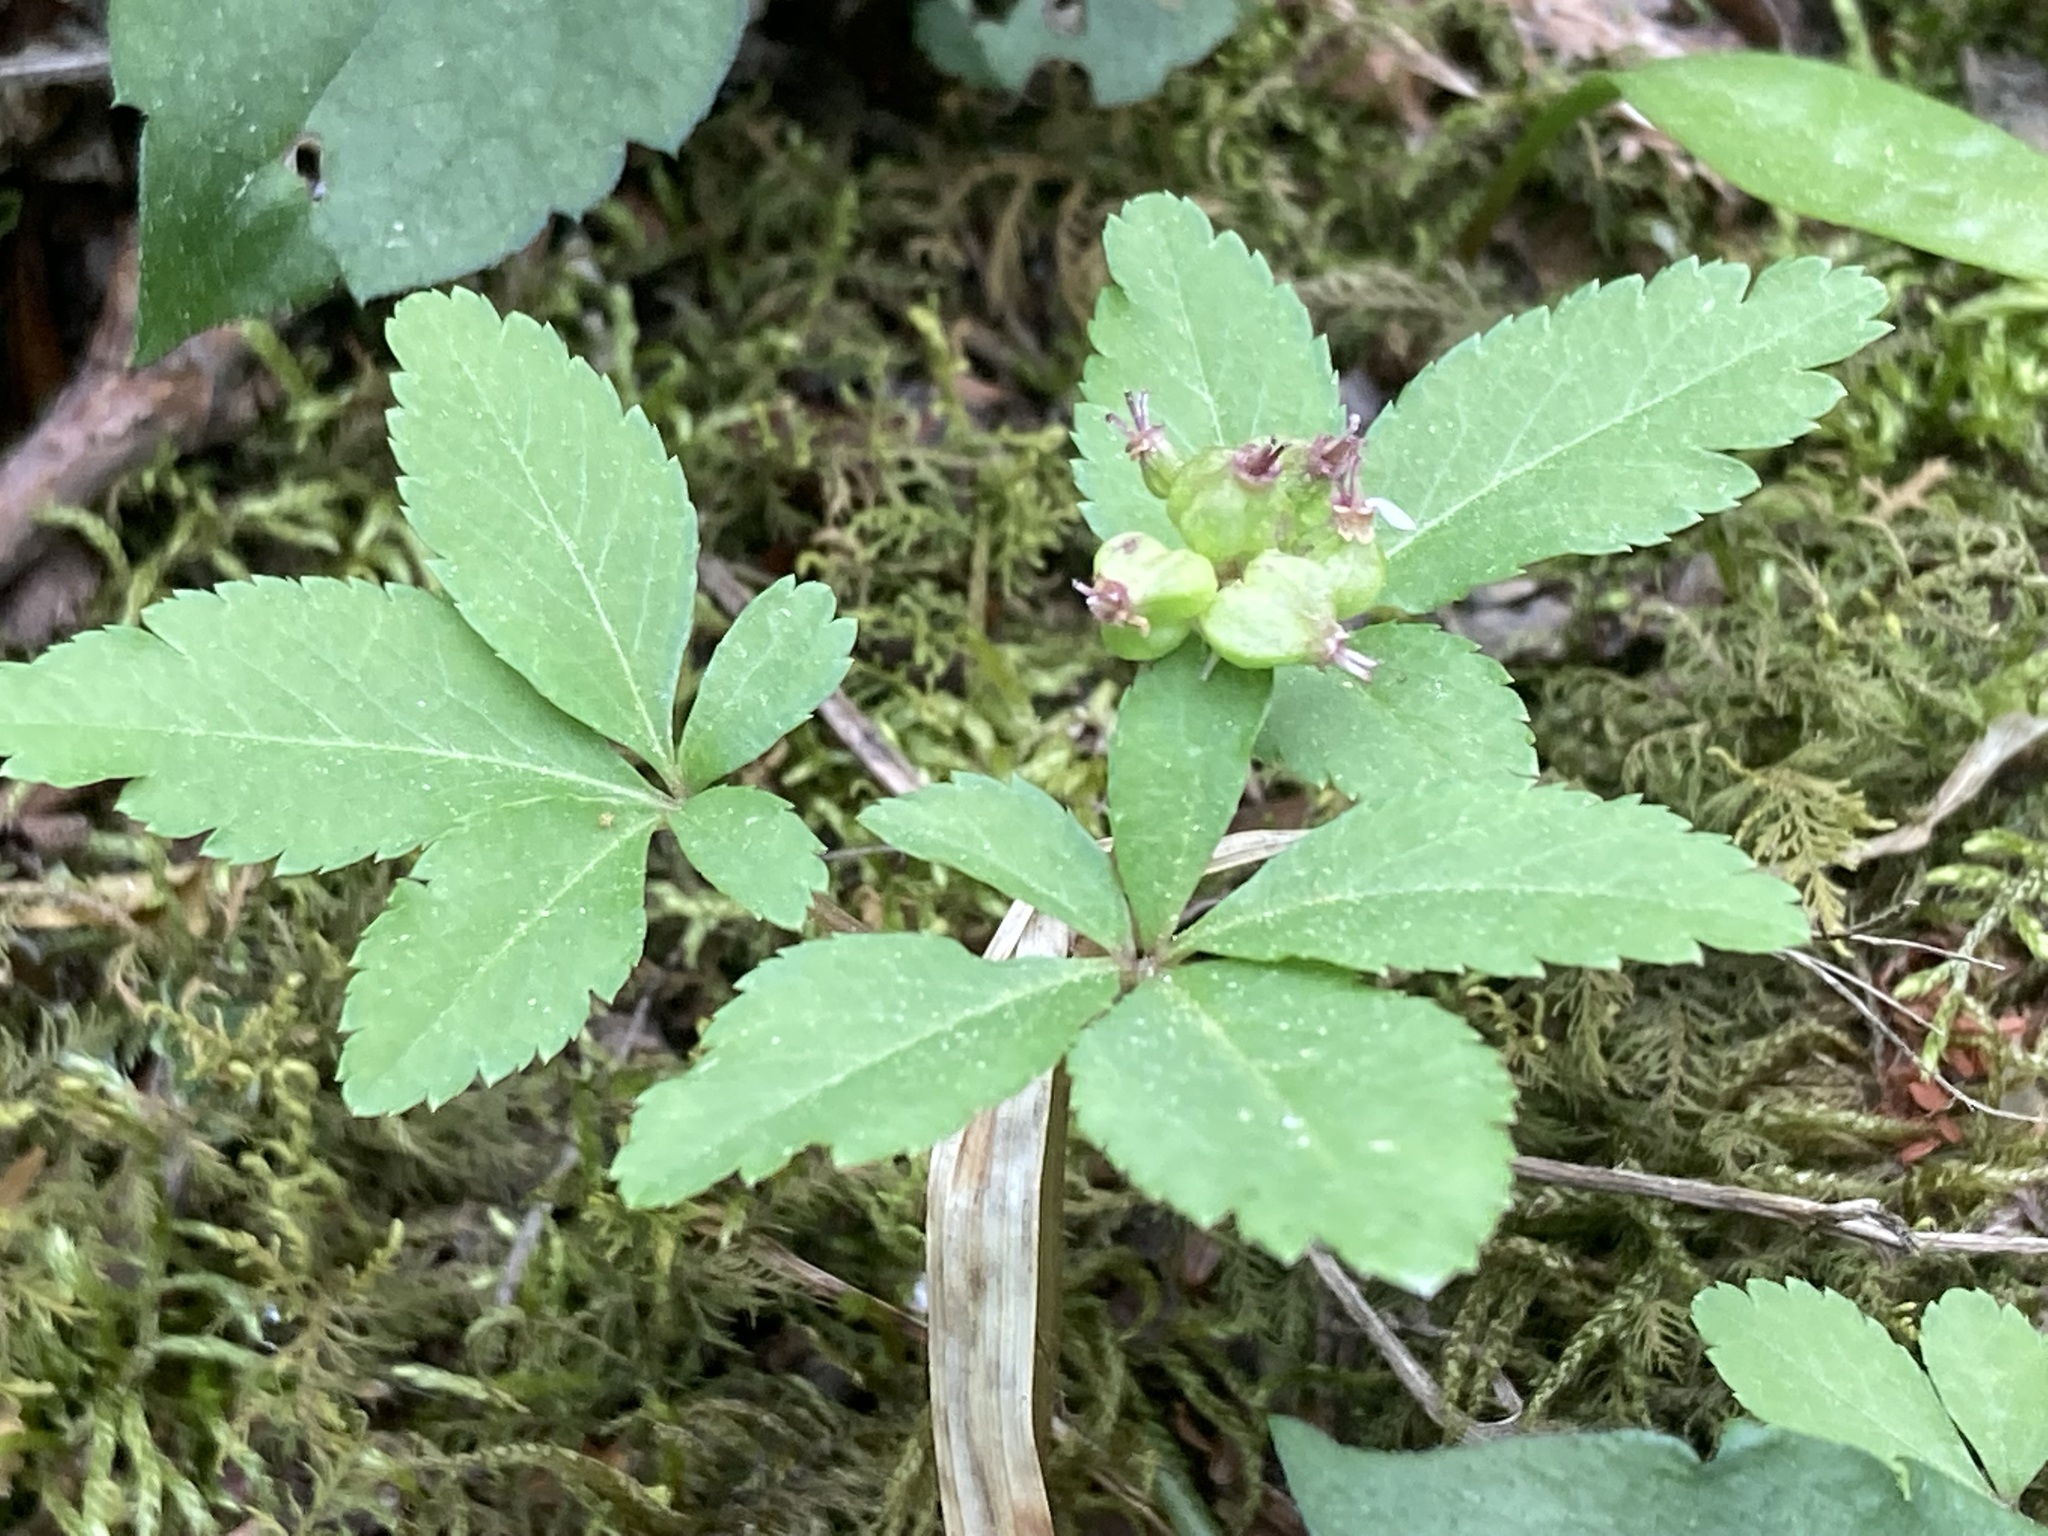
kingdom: Plantae
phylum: Tracheophyta
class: Magnoliopsida
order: Apiales
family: Araliaceae
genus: Panax
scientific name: Panax trifolius
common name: Dwarf ginseng
